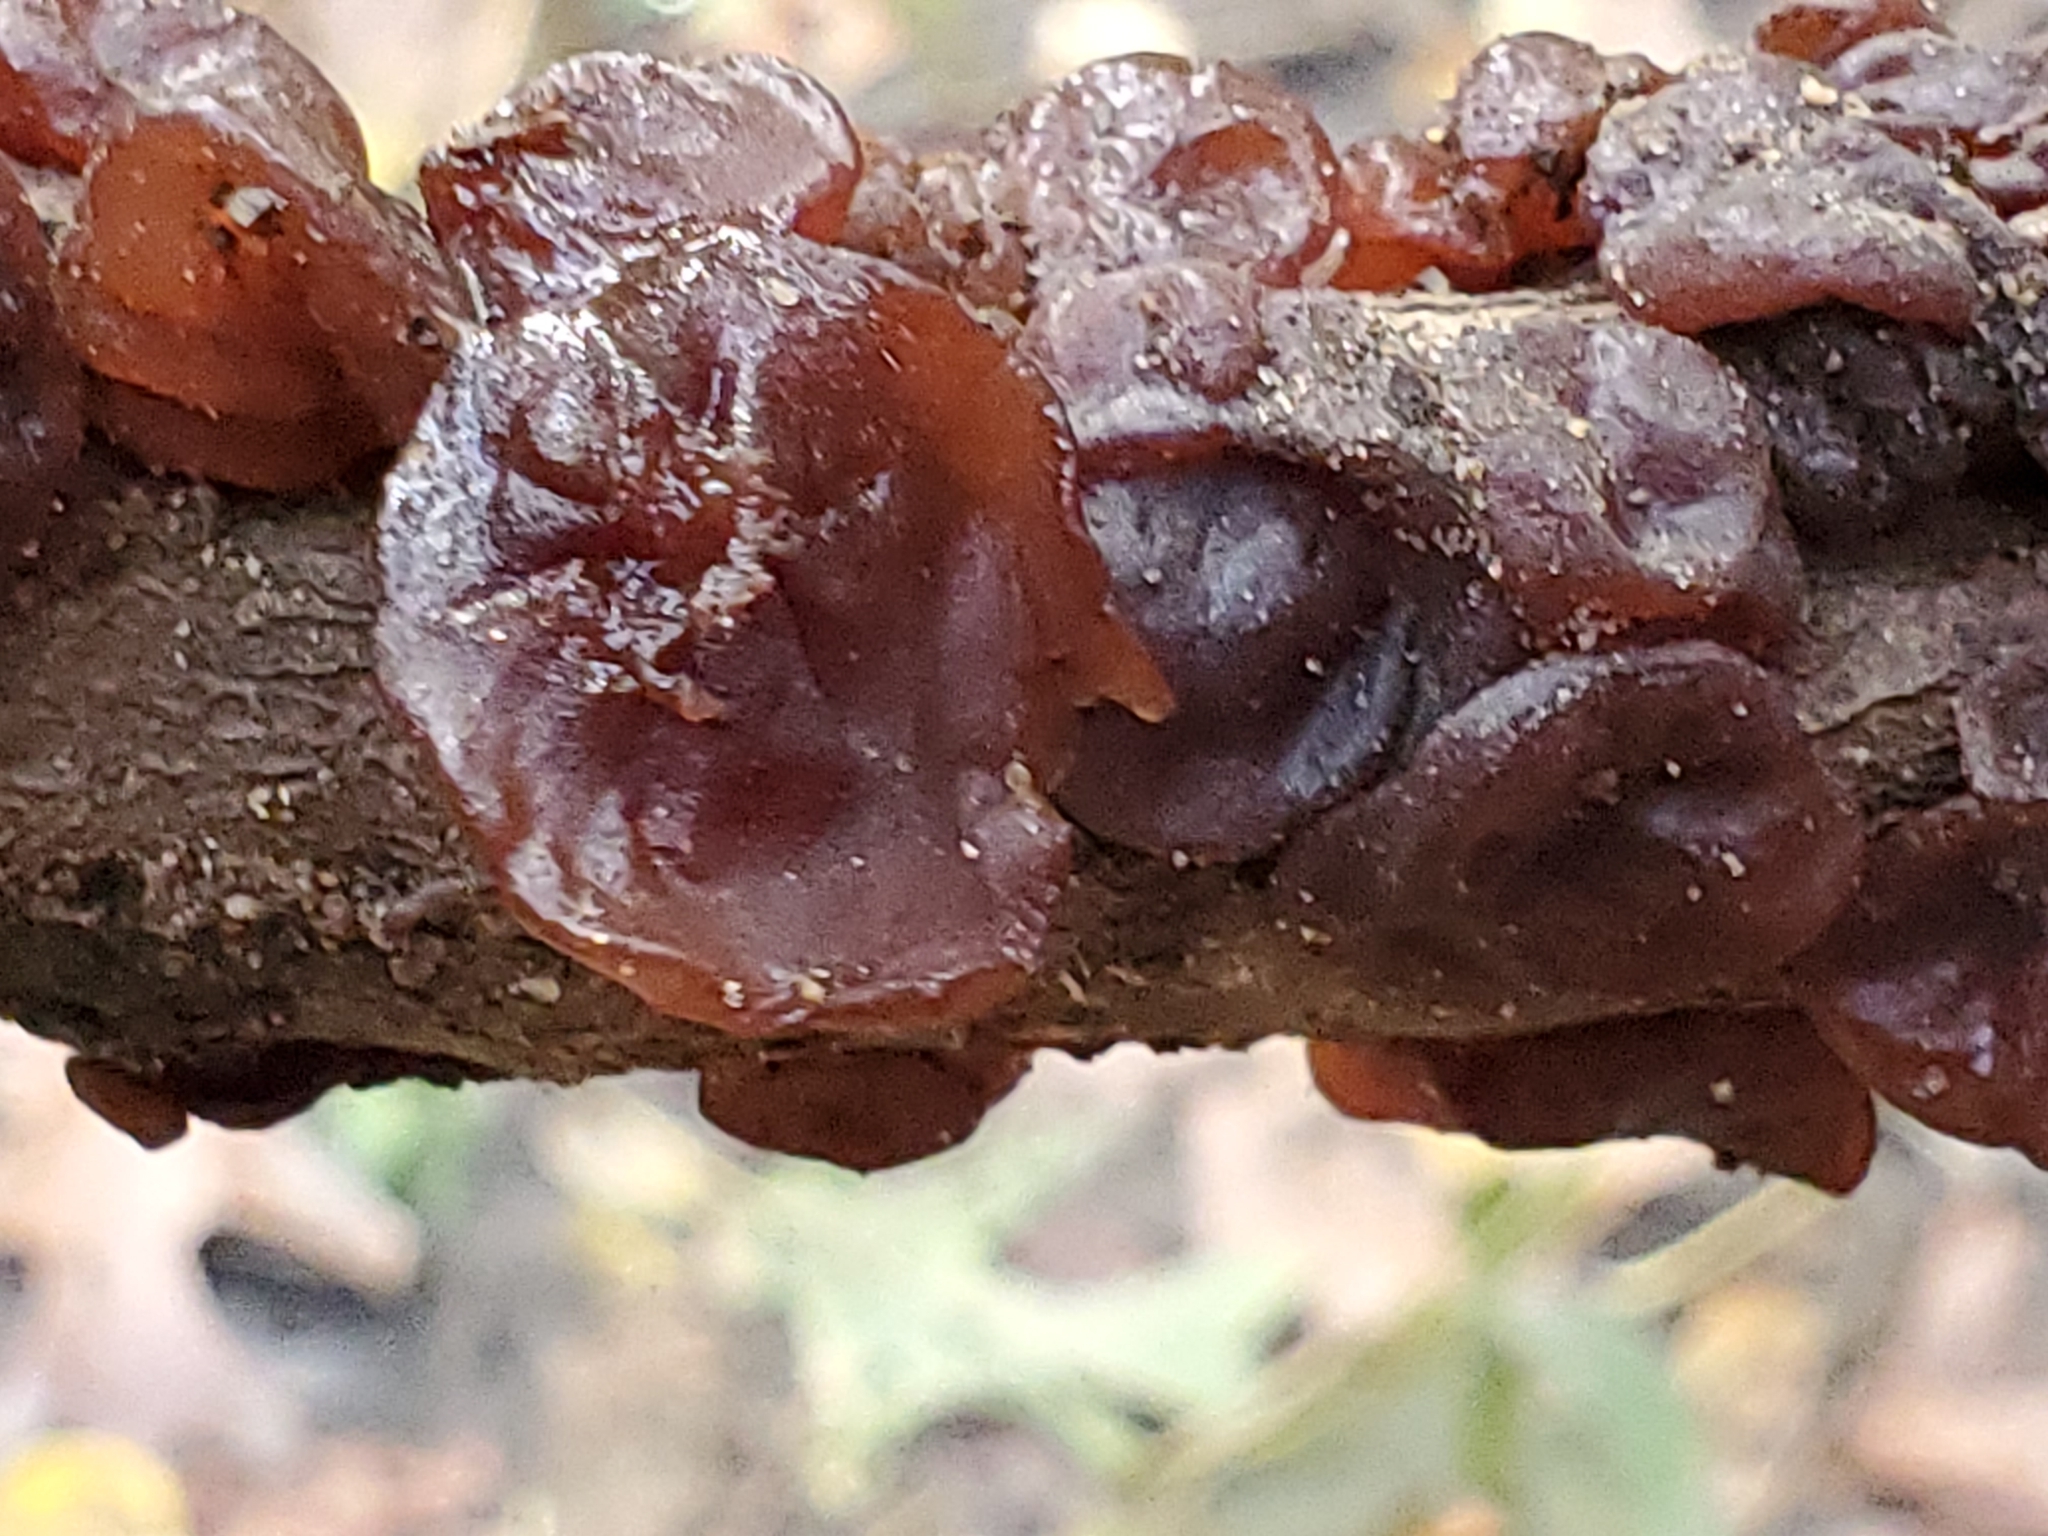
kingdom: Fungi
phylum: Basidiomycota
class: Agaricomycetes
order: Auriculariales
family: Auriculariaceae
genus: Exidia
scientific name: Exidia
